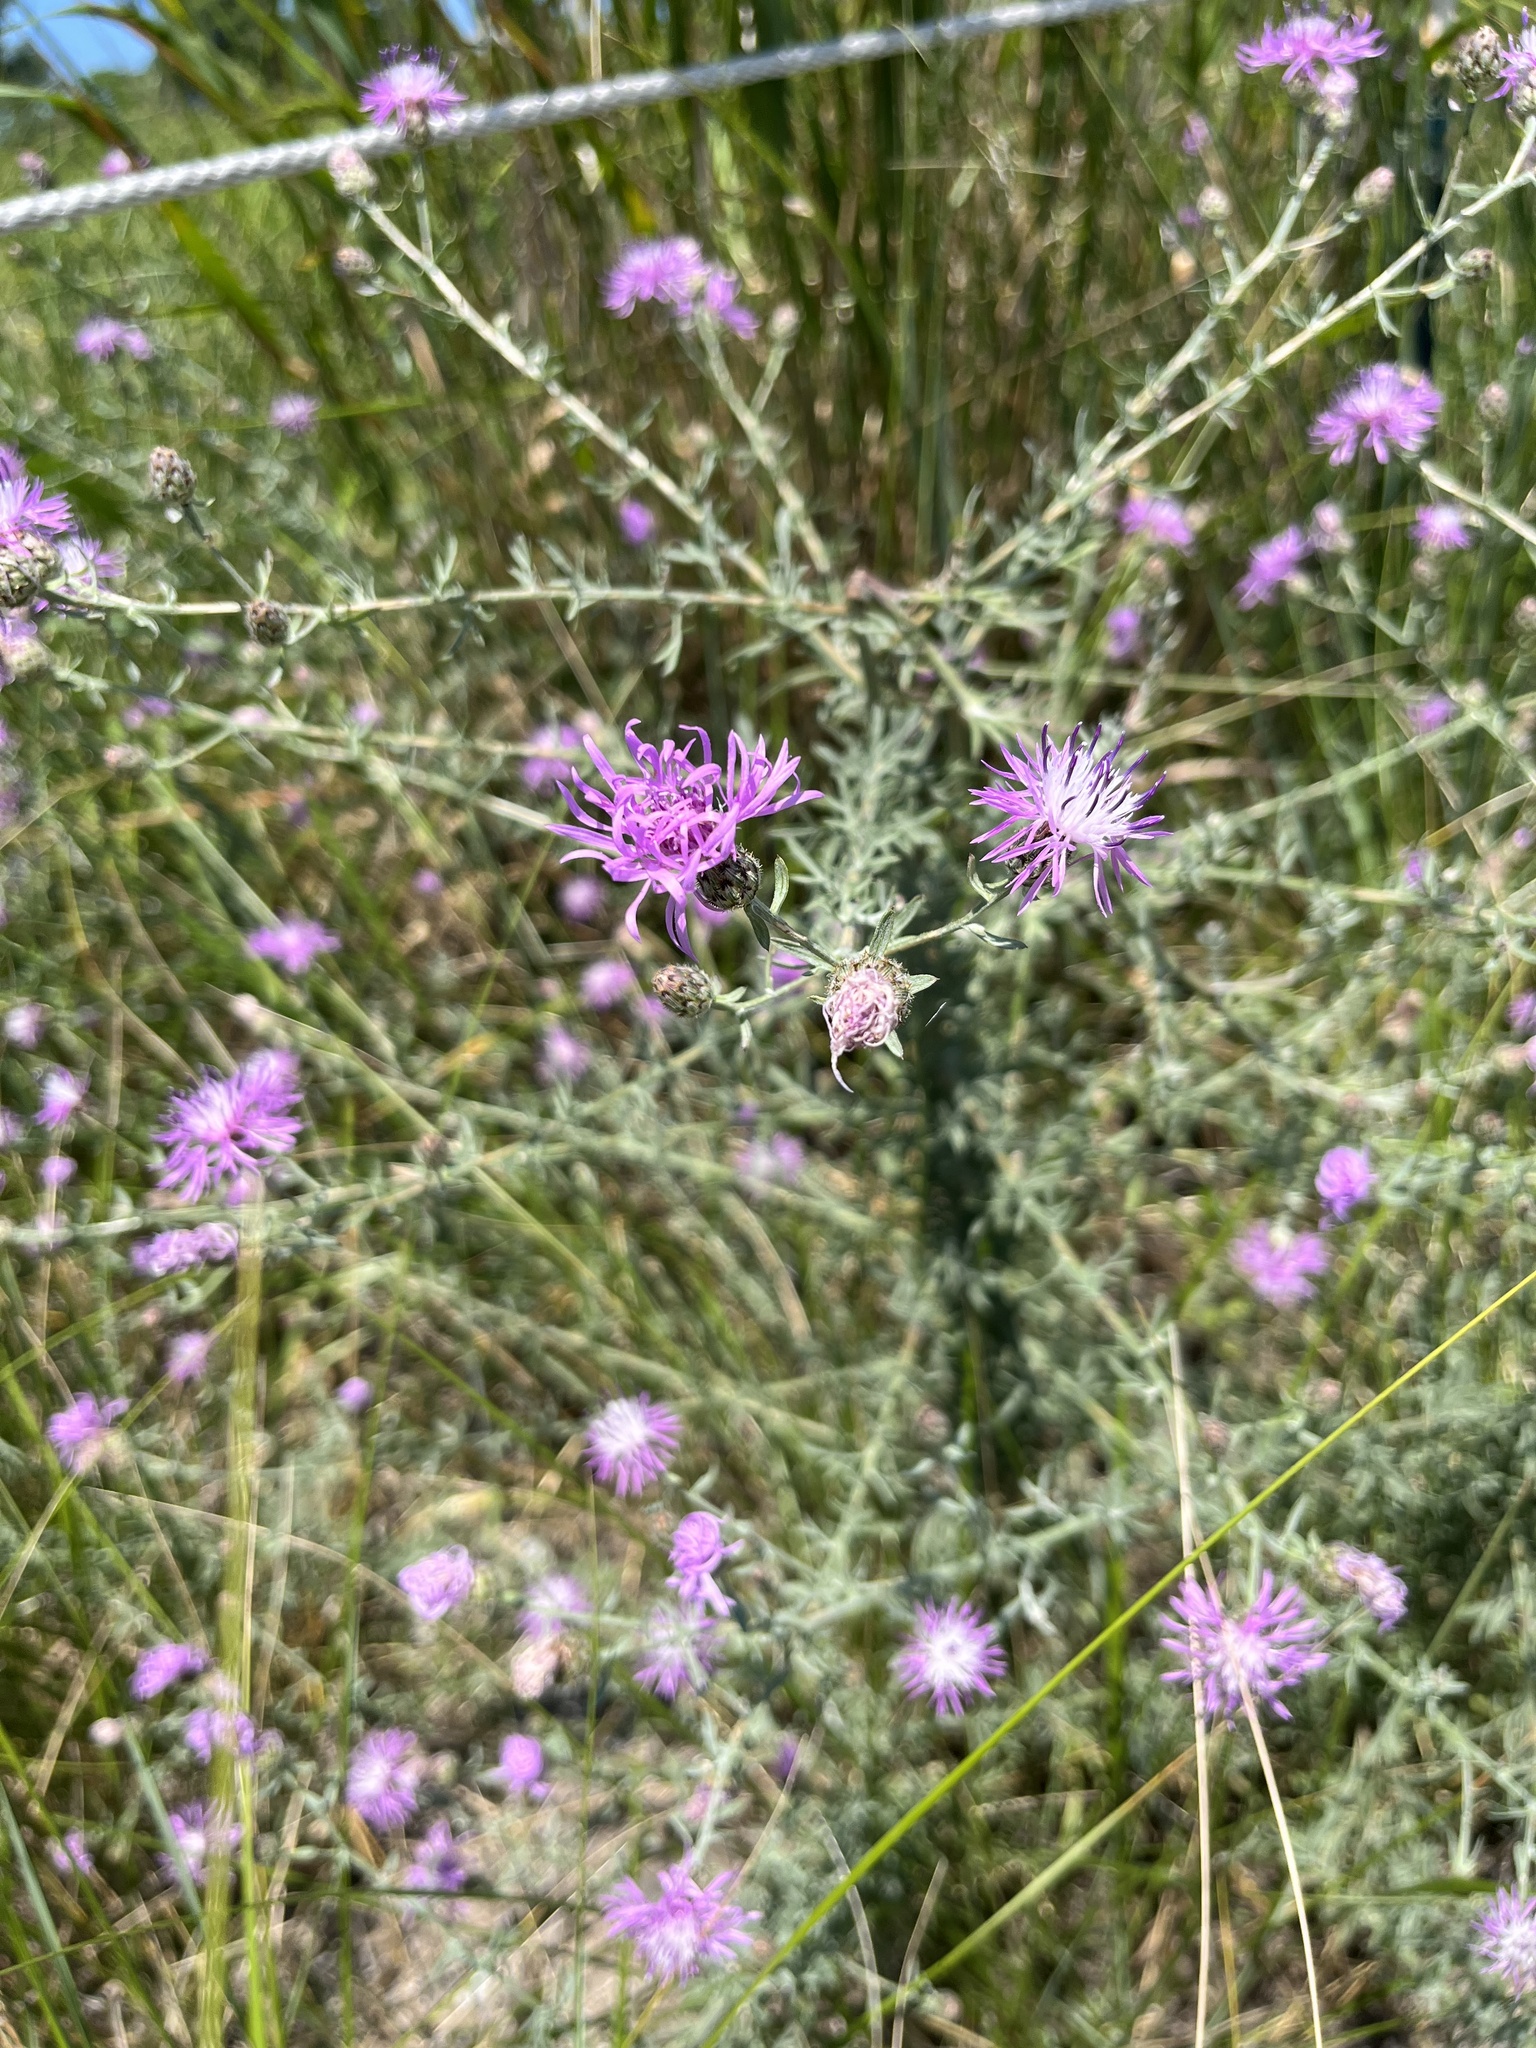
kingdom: Plantae
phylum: Tracheophyta
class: Magnoliopsida
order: Asterales
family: Asteraceae
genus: Centaurea
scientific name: Centaurea stoebe
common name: Spotted knapweed
